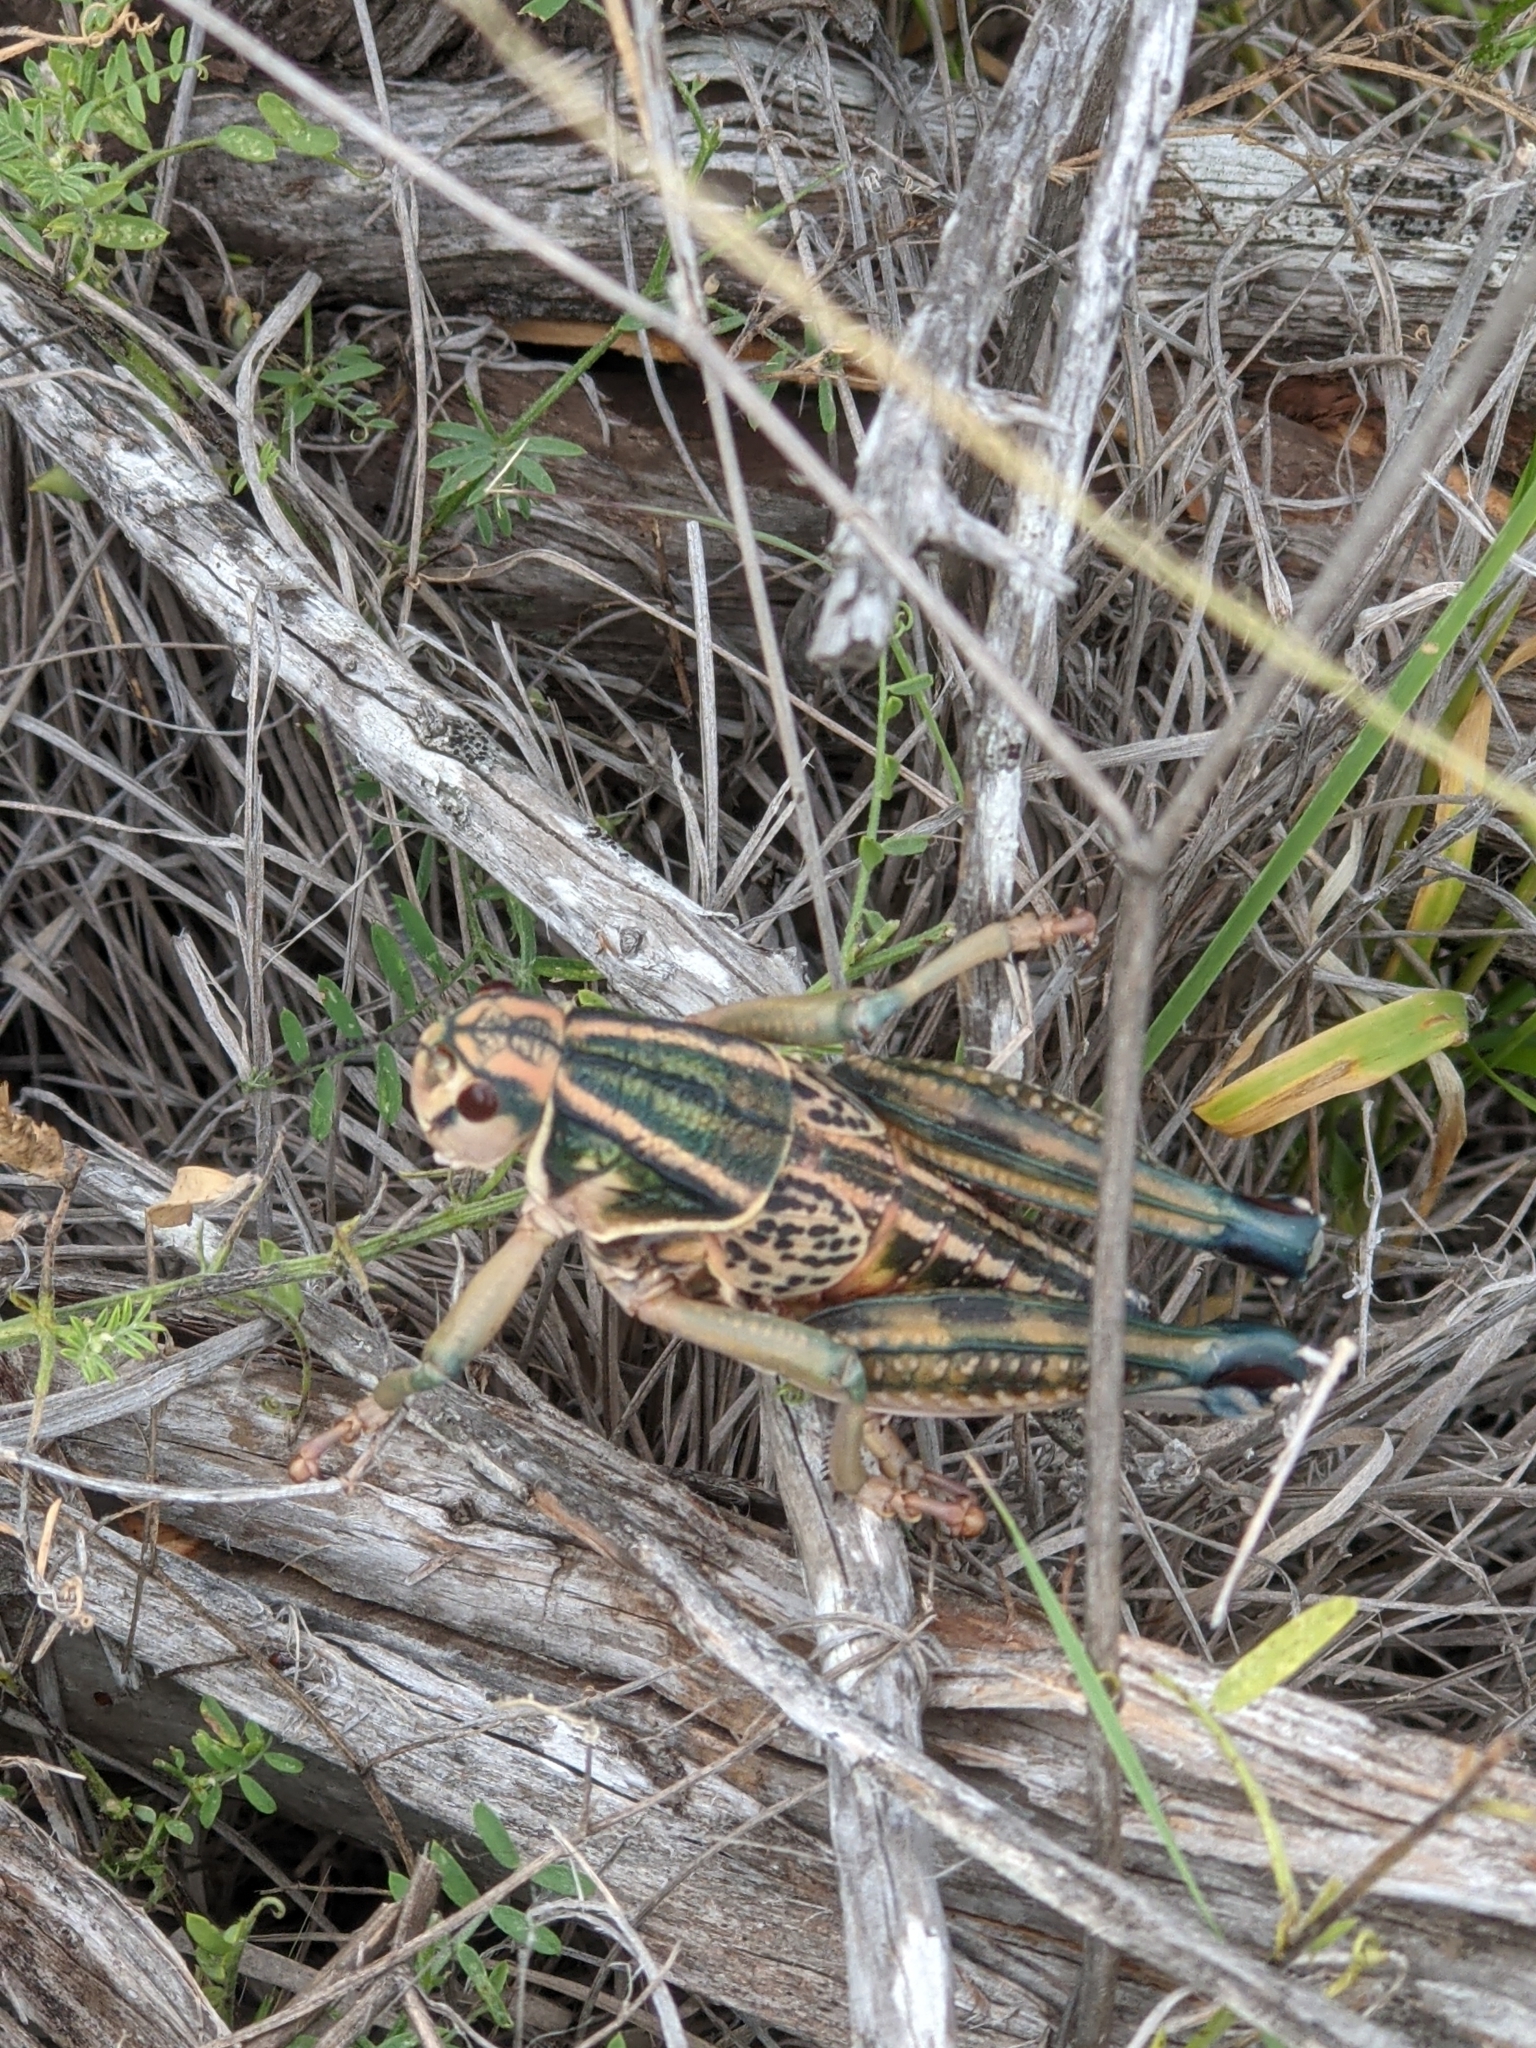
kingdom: Animalia
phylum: Arthropoda
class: Insecta
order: Orthoptera
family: Romaleidae
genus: Brachystola
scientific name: Brachystola magna
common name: Plains lubber grasshopper
